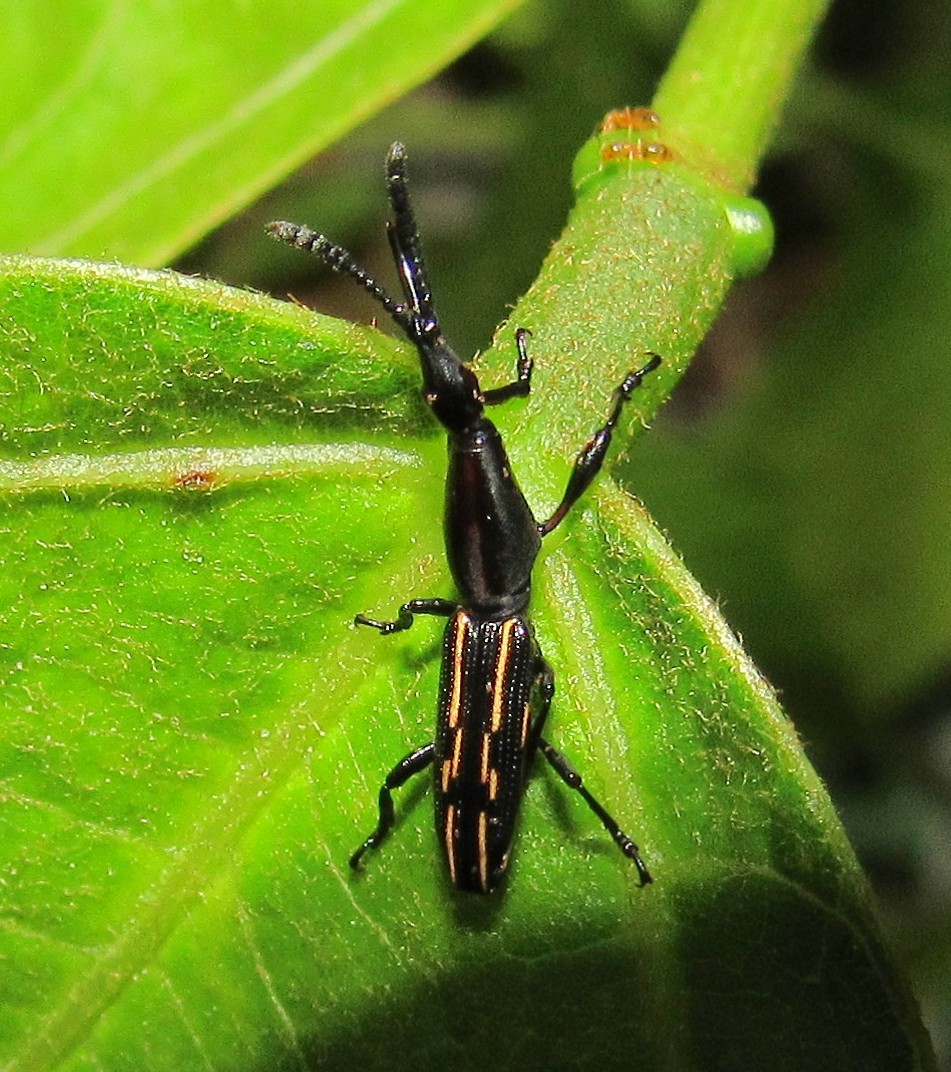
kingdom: Animalia
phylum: Arthropoda
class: Insecta
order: Coleoptera
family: Brentidae
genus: Brentus
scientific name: Brentus cylindrus
